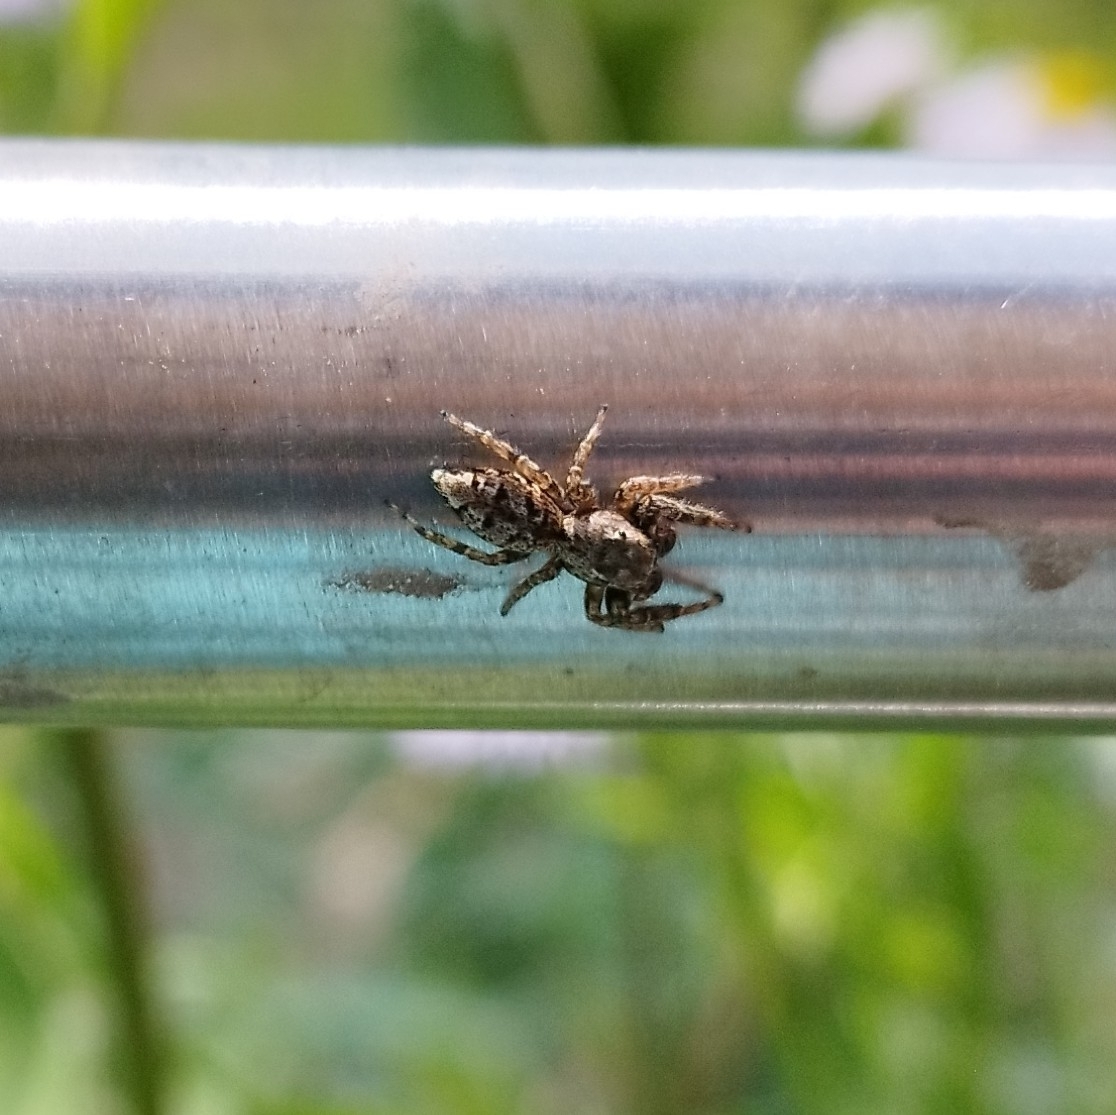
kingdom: Animalia
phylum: Arthropoda
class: Arachnida
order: Araneae
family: Salticidae
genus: Marpissa
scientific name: Marpissa muscosa
